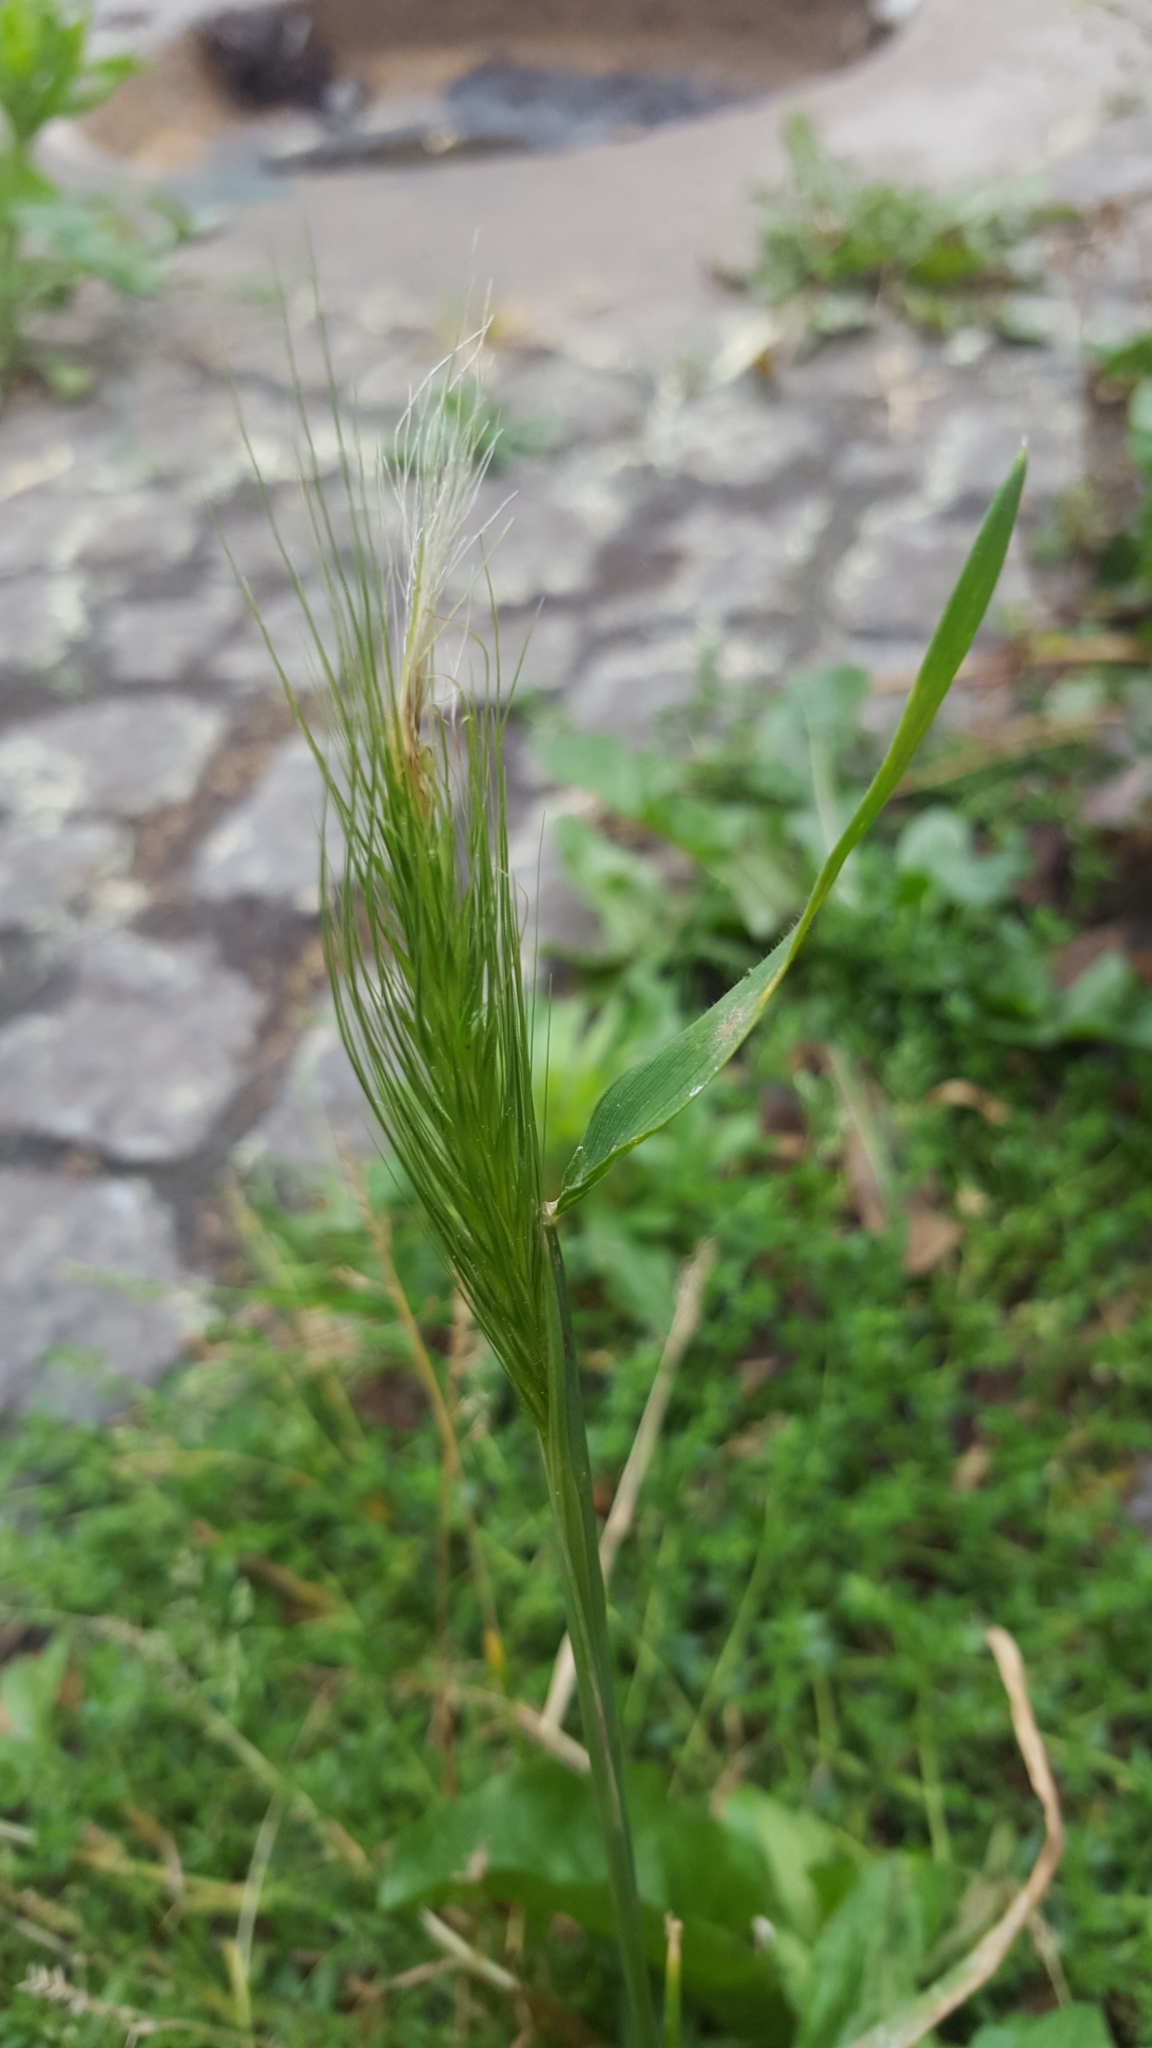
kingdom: Plantae
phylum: Tracheophyta
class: Liliopsida
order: Poales
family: Poaceae
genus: Hordeum
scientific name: Hordeum murinum
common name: Wall barley
